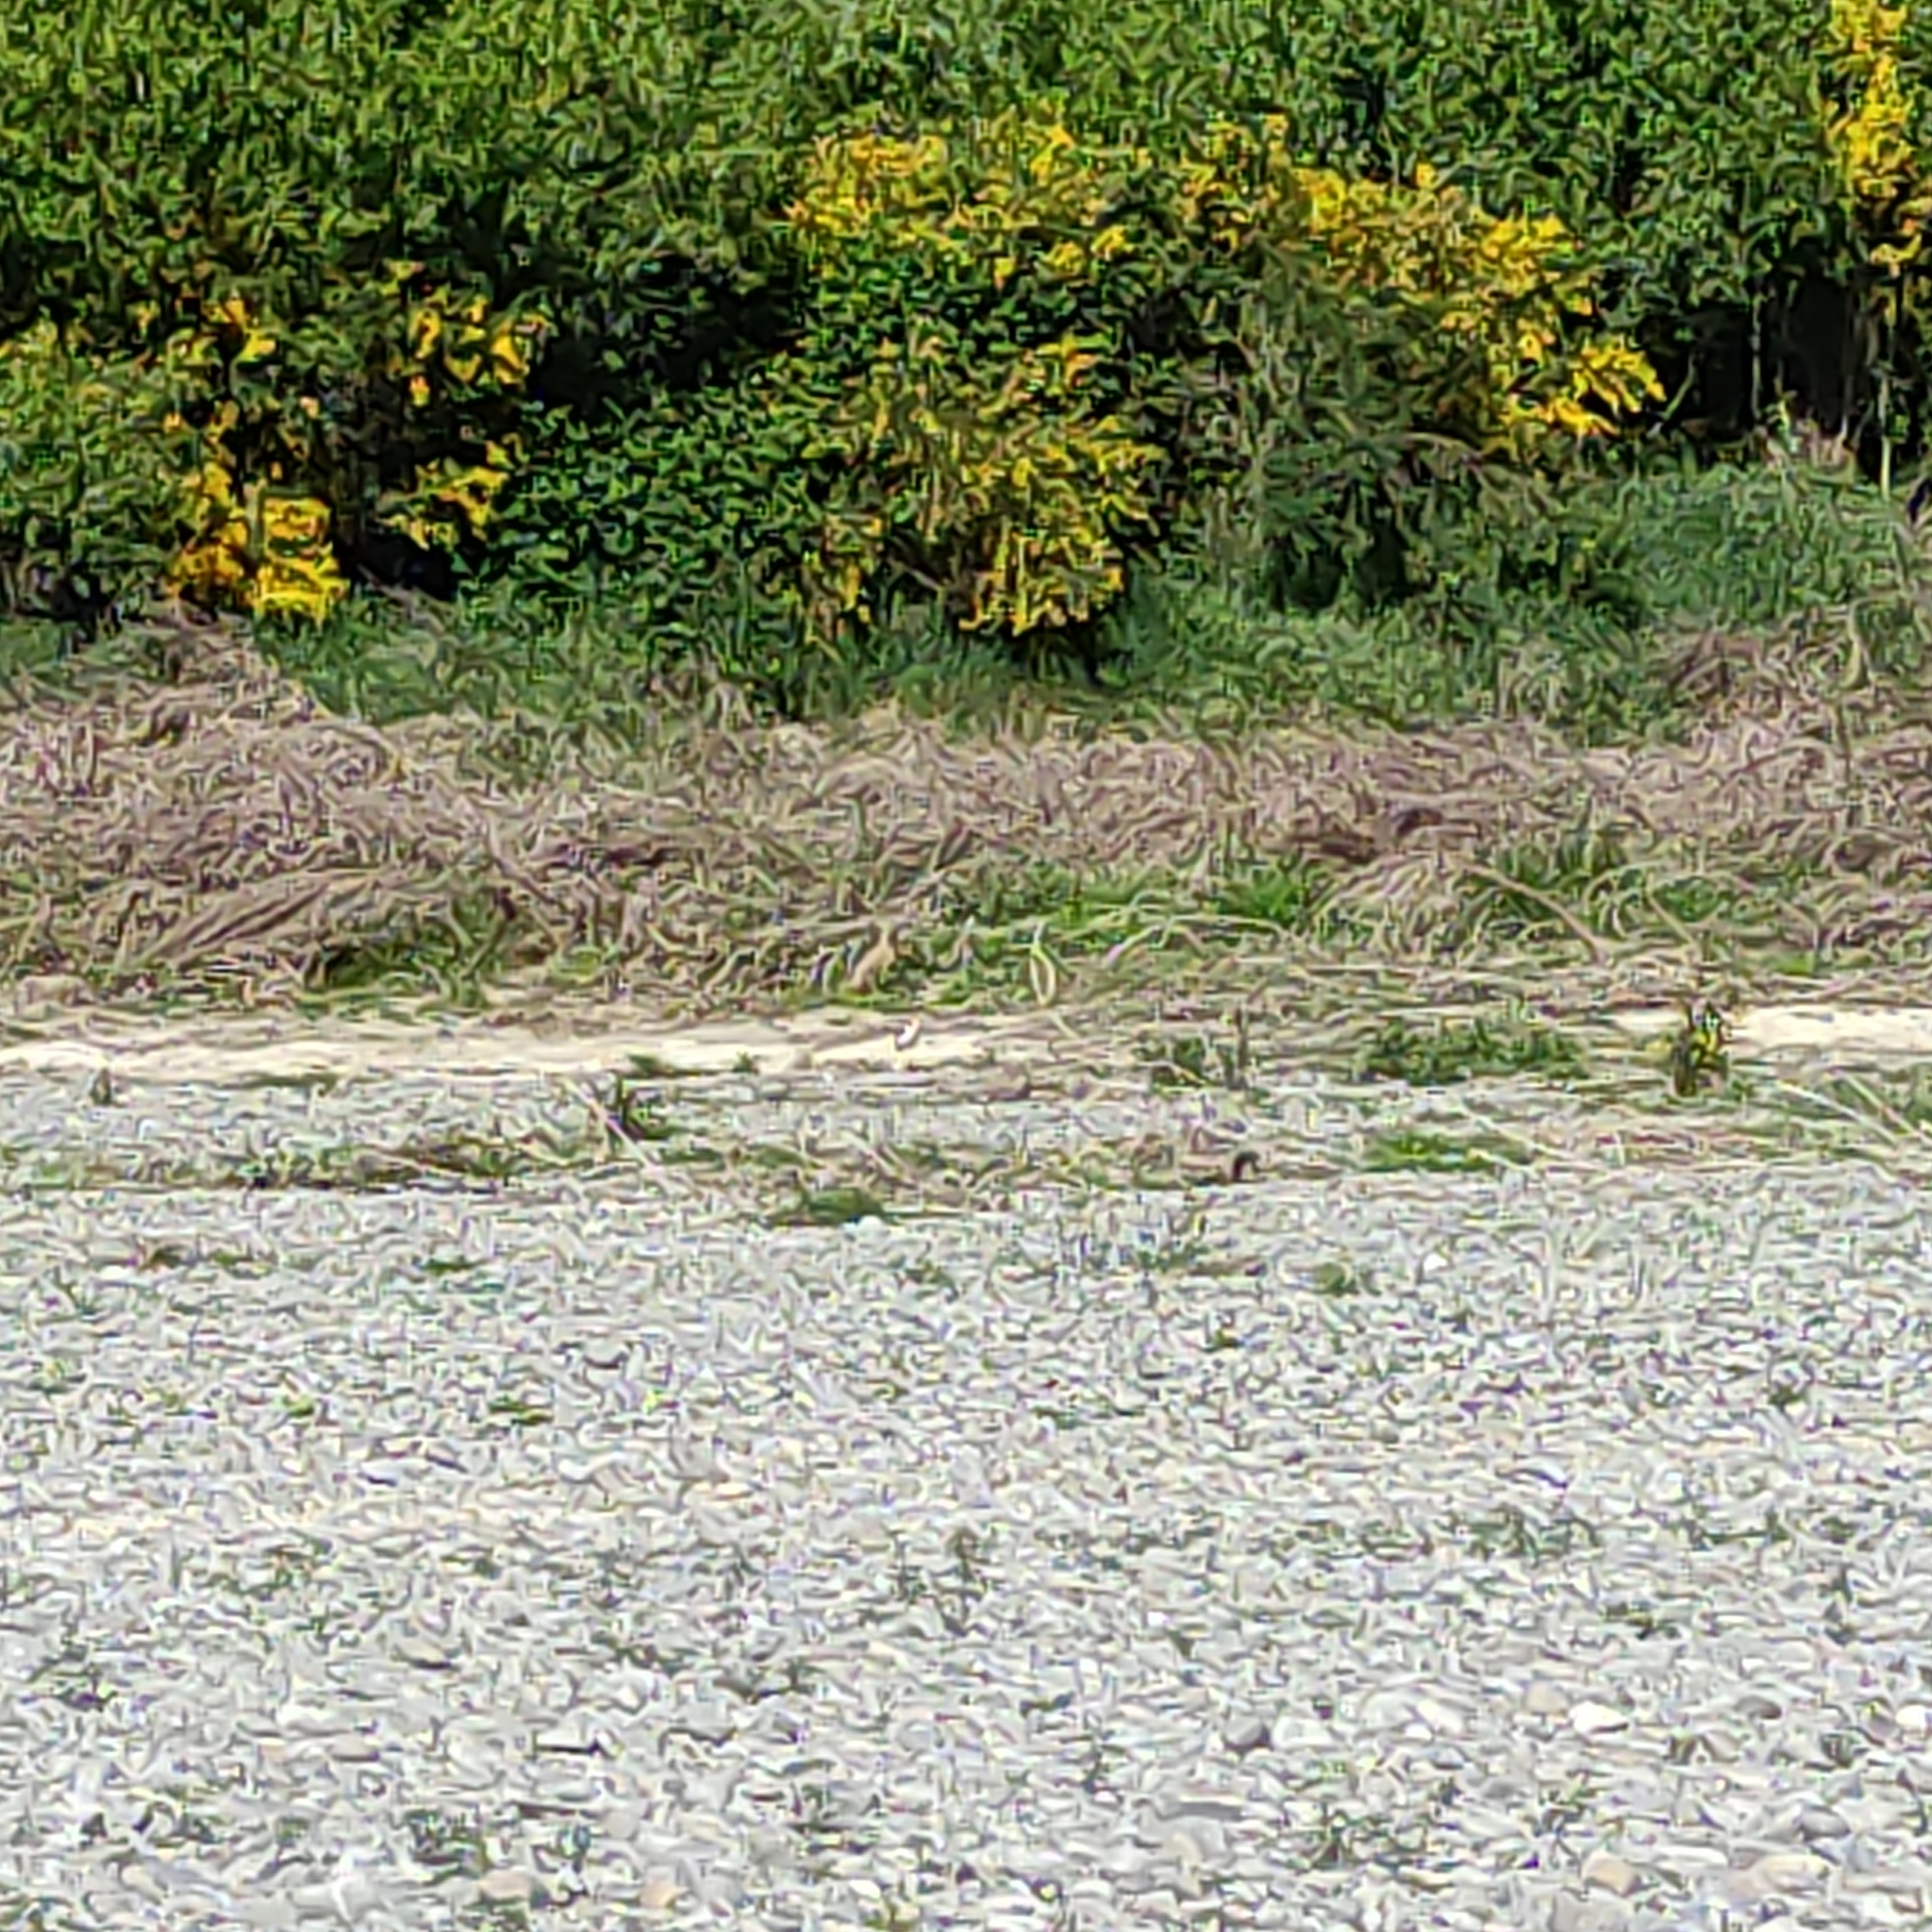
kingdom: Animalia
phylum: Chordata
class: Aves
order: Charadriiformes
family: Charadriidae
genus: Vanellus
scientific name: Vanellus miles
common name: Masked lapwing
